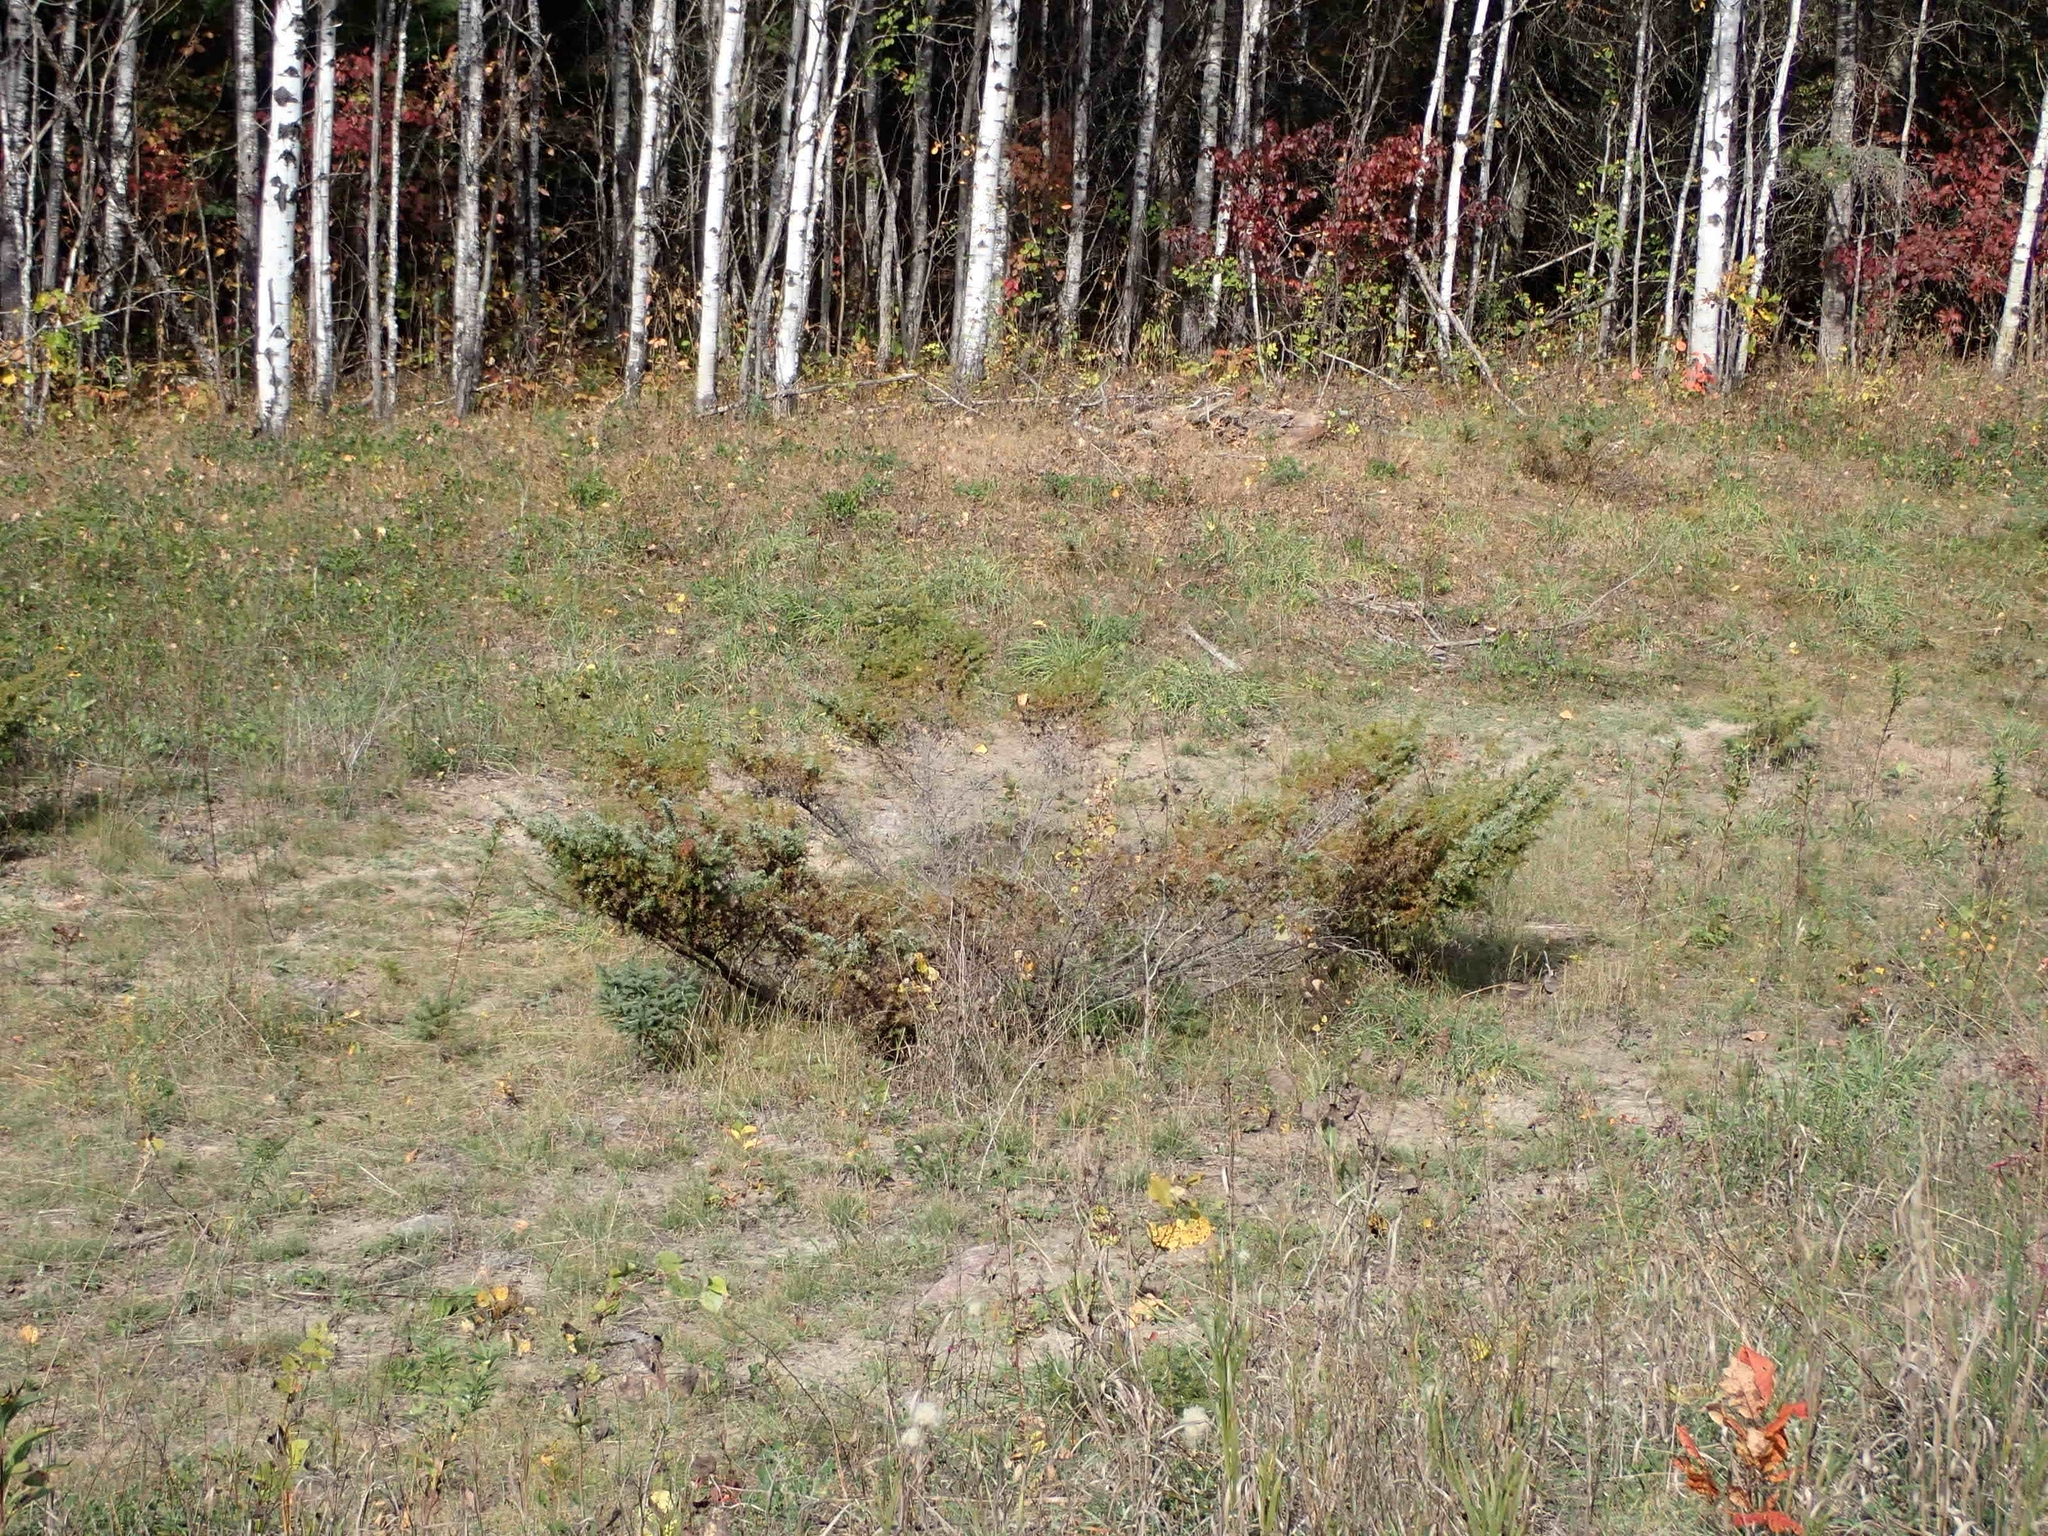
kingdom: Plantae
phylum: Tracheophyta
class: Pinopsida
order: Pinales
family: Cupressaceae
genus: Juniperus
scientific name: Juniperus communis
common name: Common juniper
